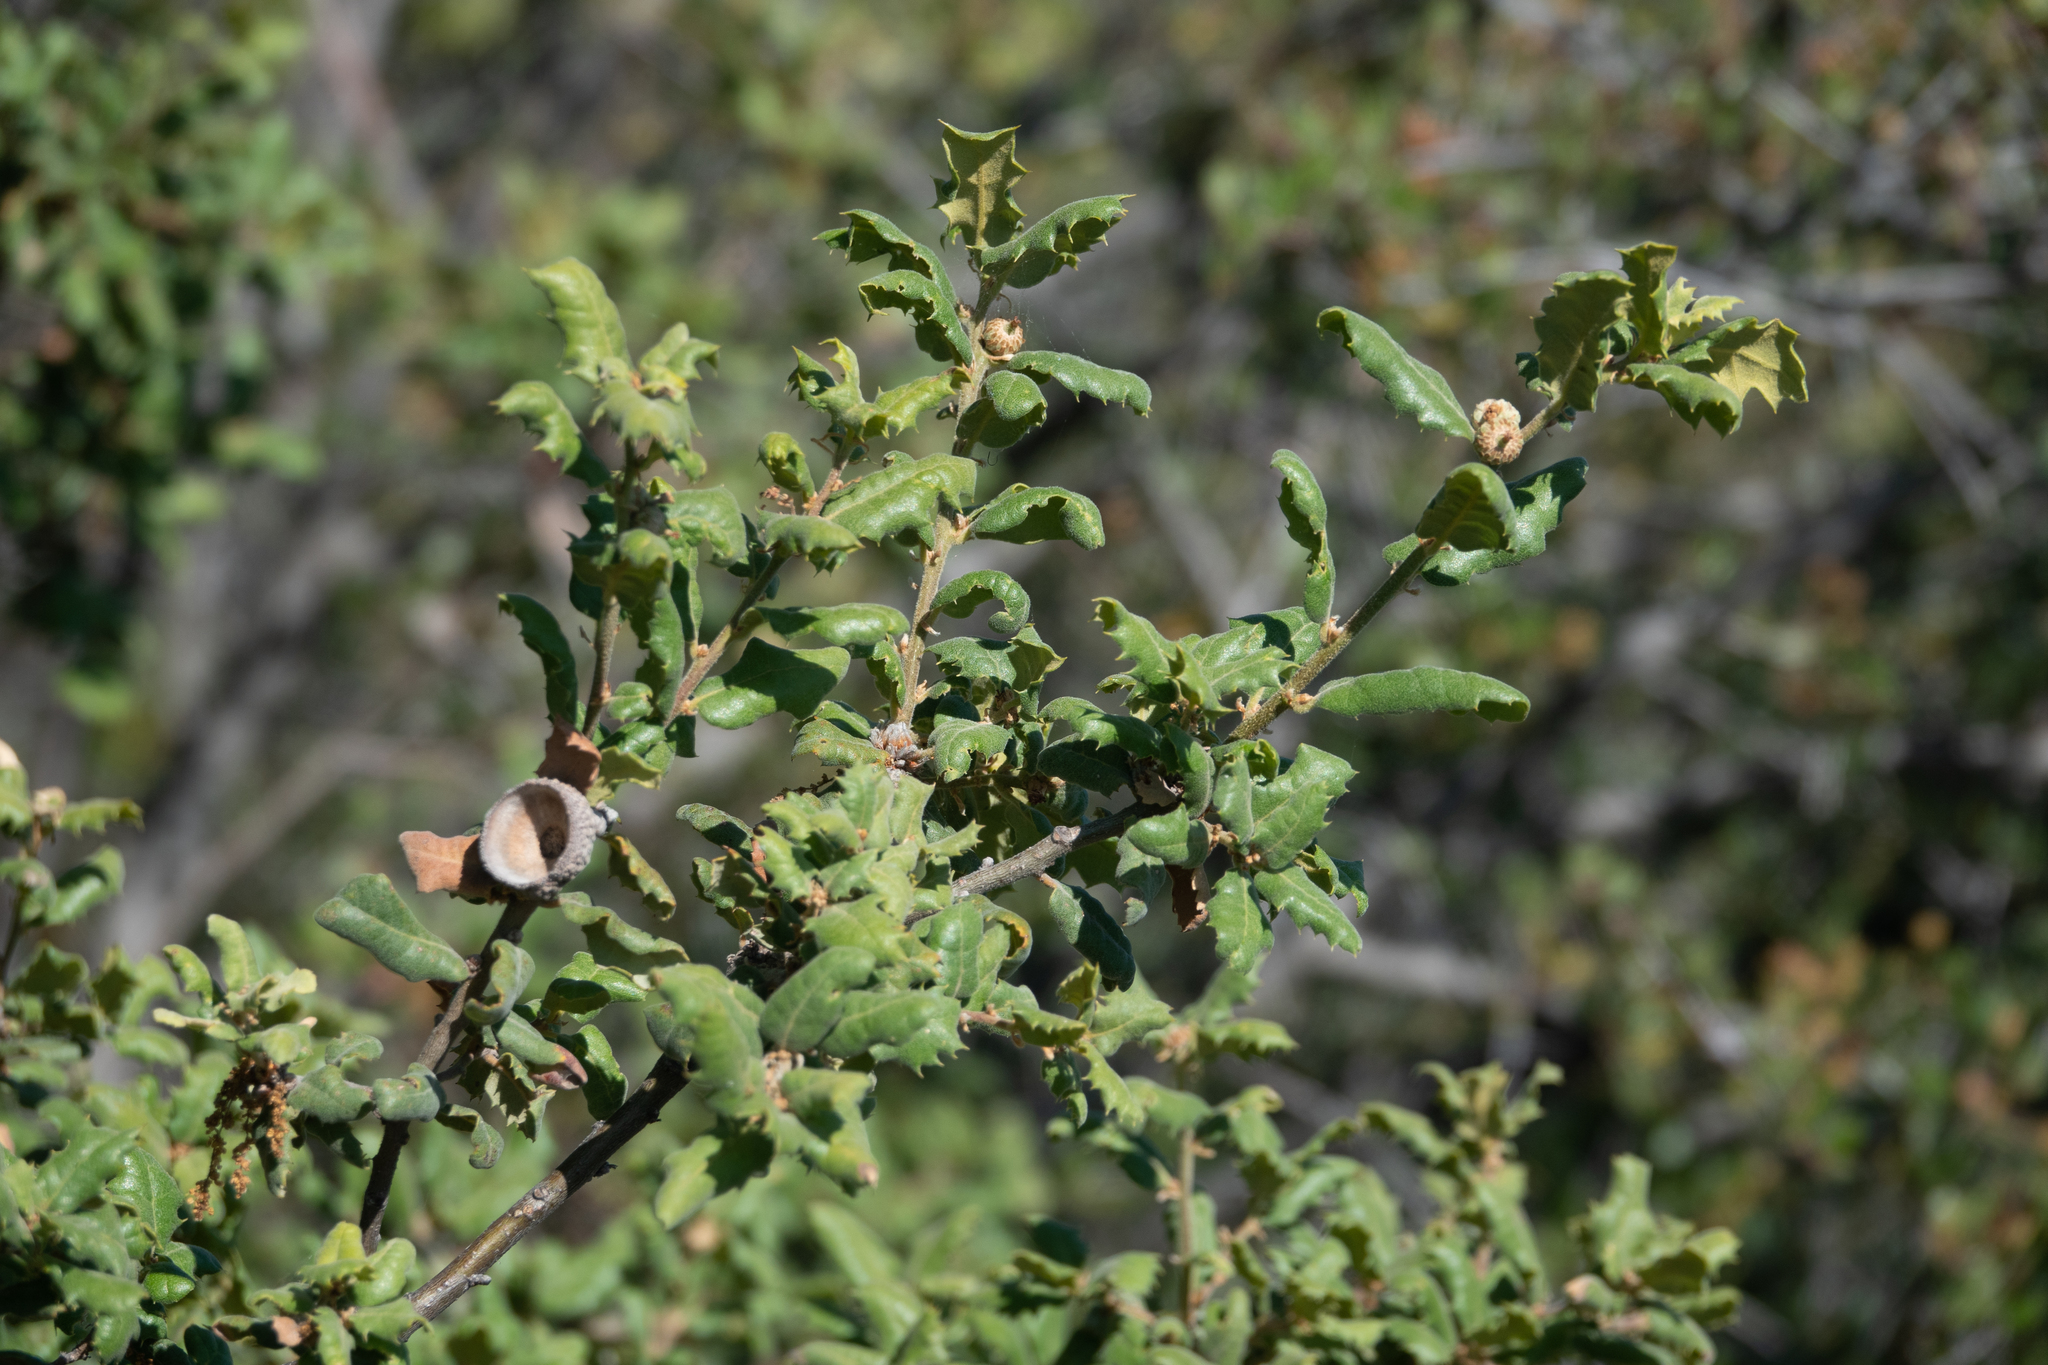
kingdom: Plantae
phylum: Tracheophyta
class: Magnoliopsida
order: Fagales
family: Fagaceae
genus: Quercus
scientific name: Quercus durata
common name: Leather oak
